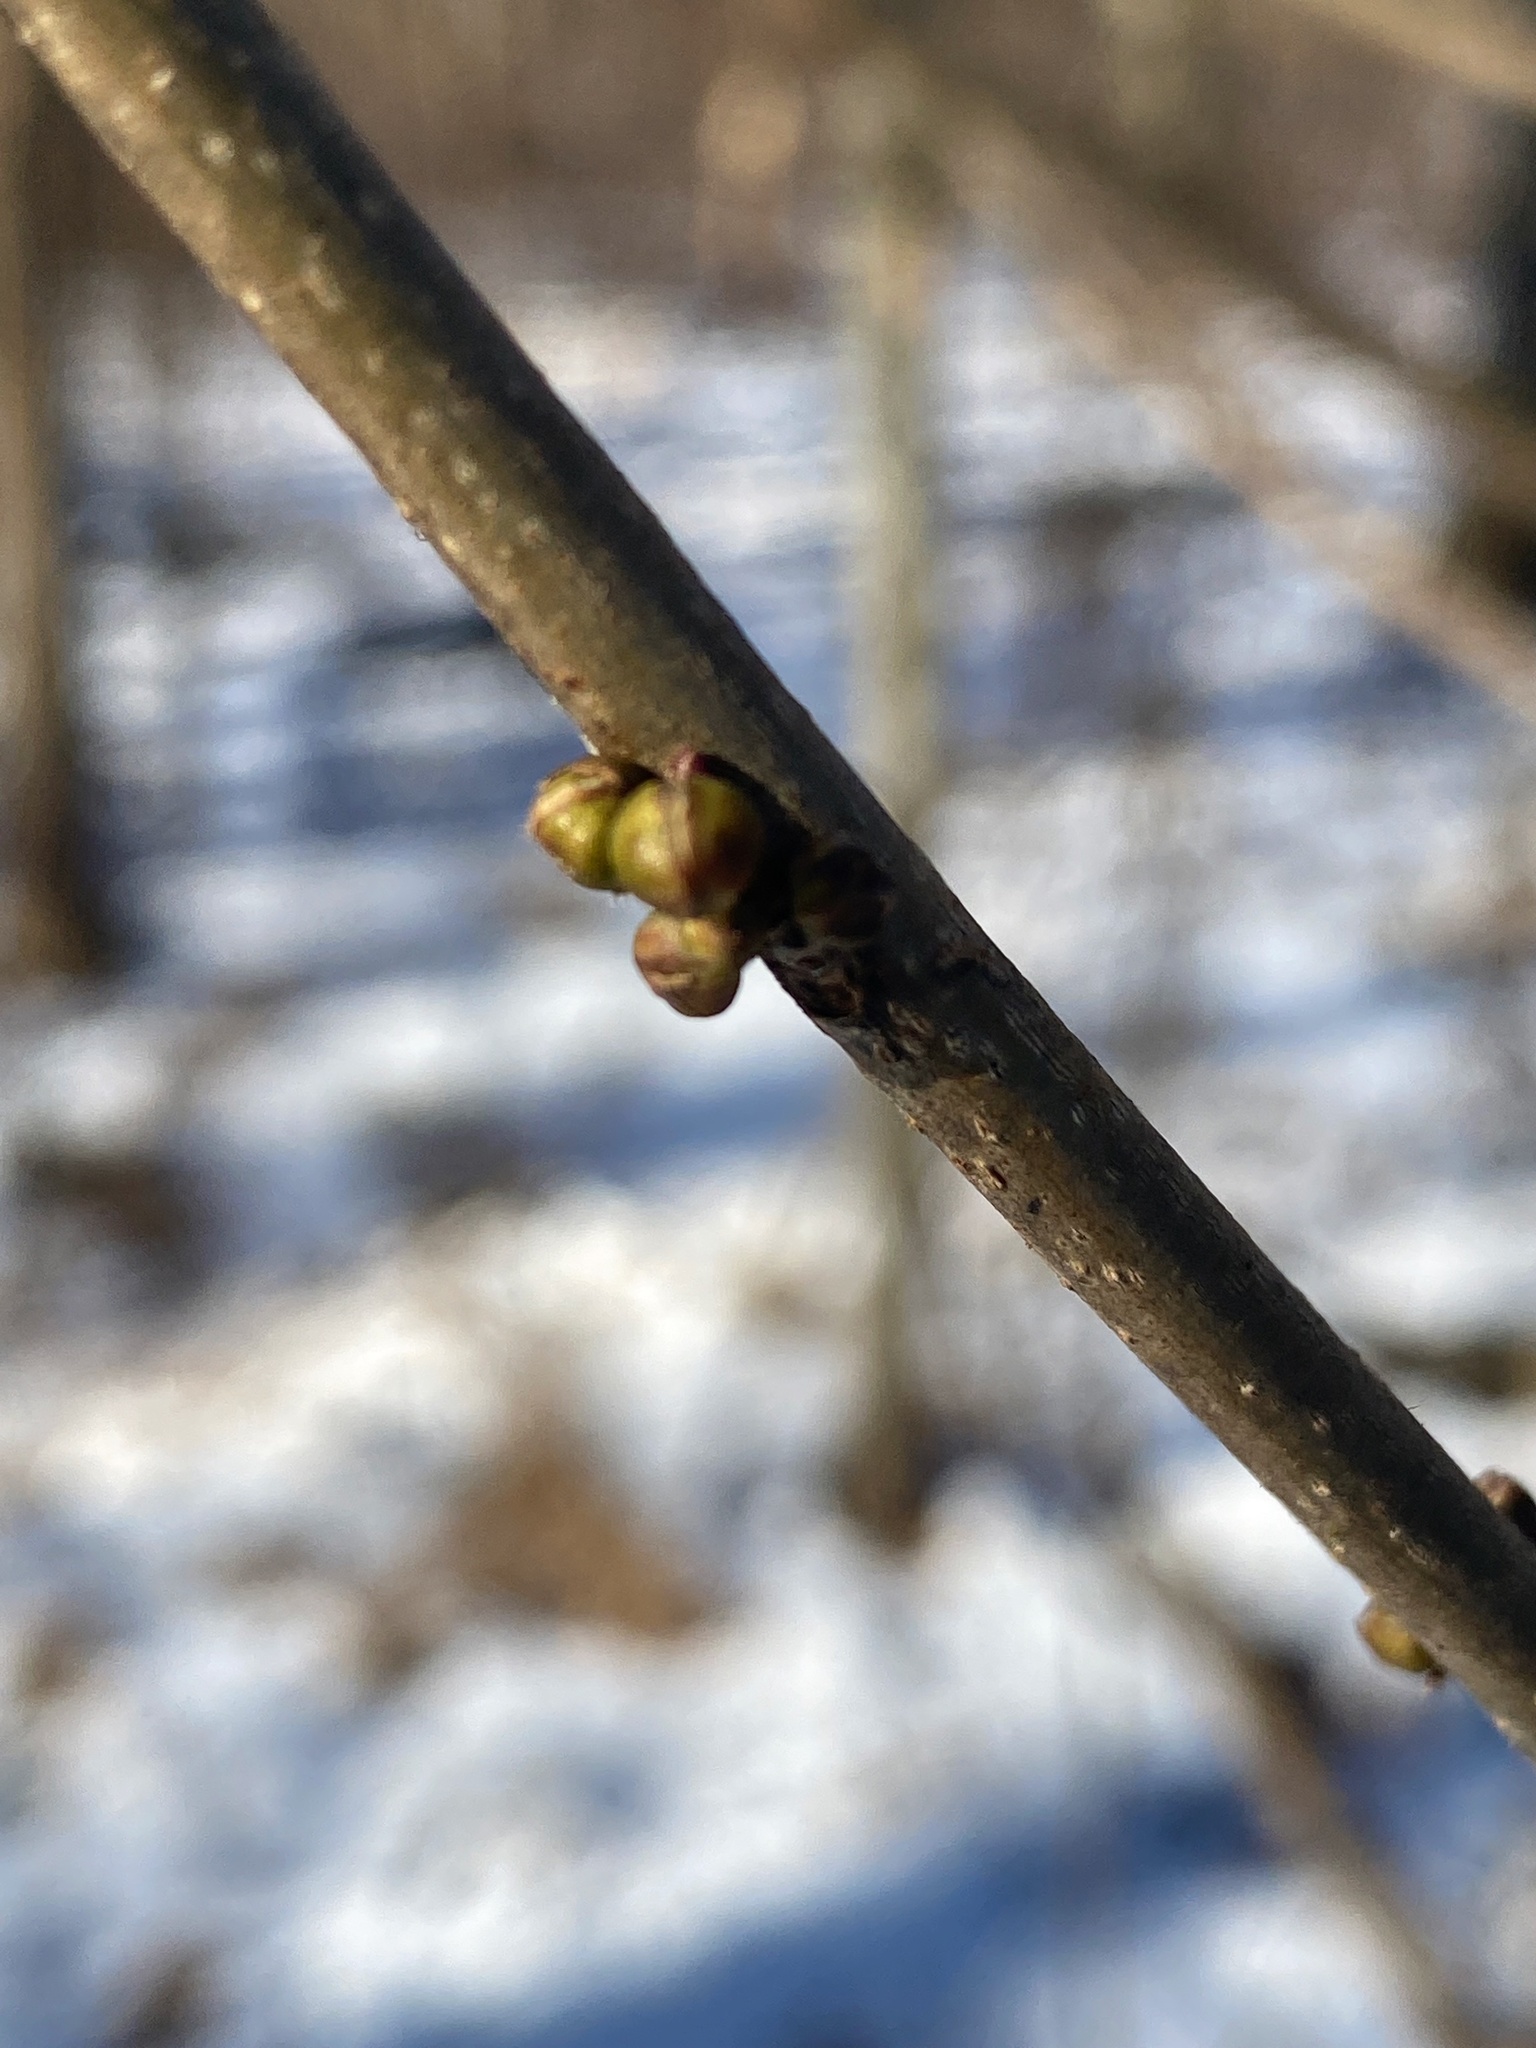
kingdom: Plantae
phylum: Tracheophyta
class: Magnoliopsida
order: Laurales
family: Lauraceae
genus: Lindera
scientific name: Lindera benzoin
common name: Spicebush
